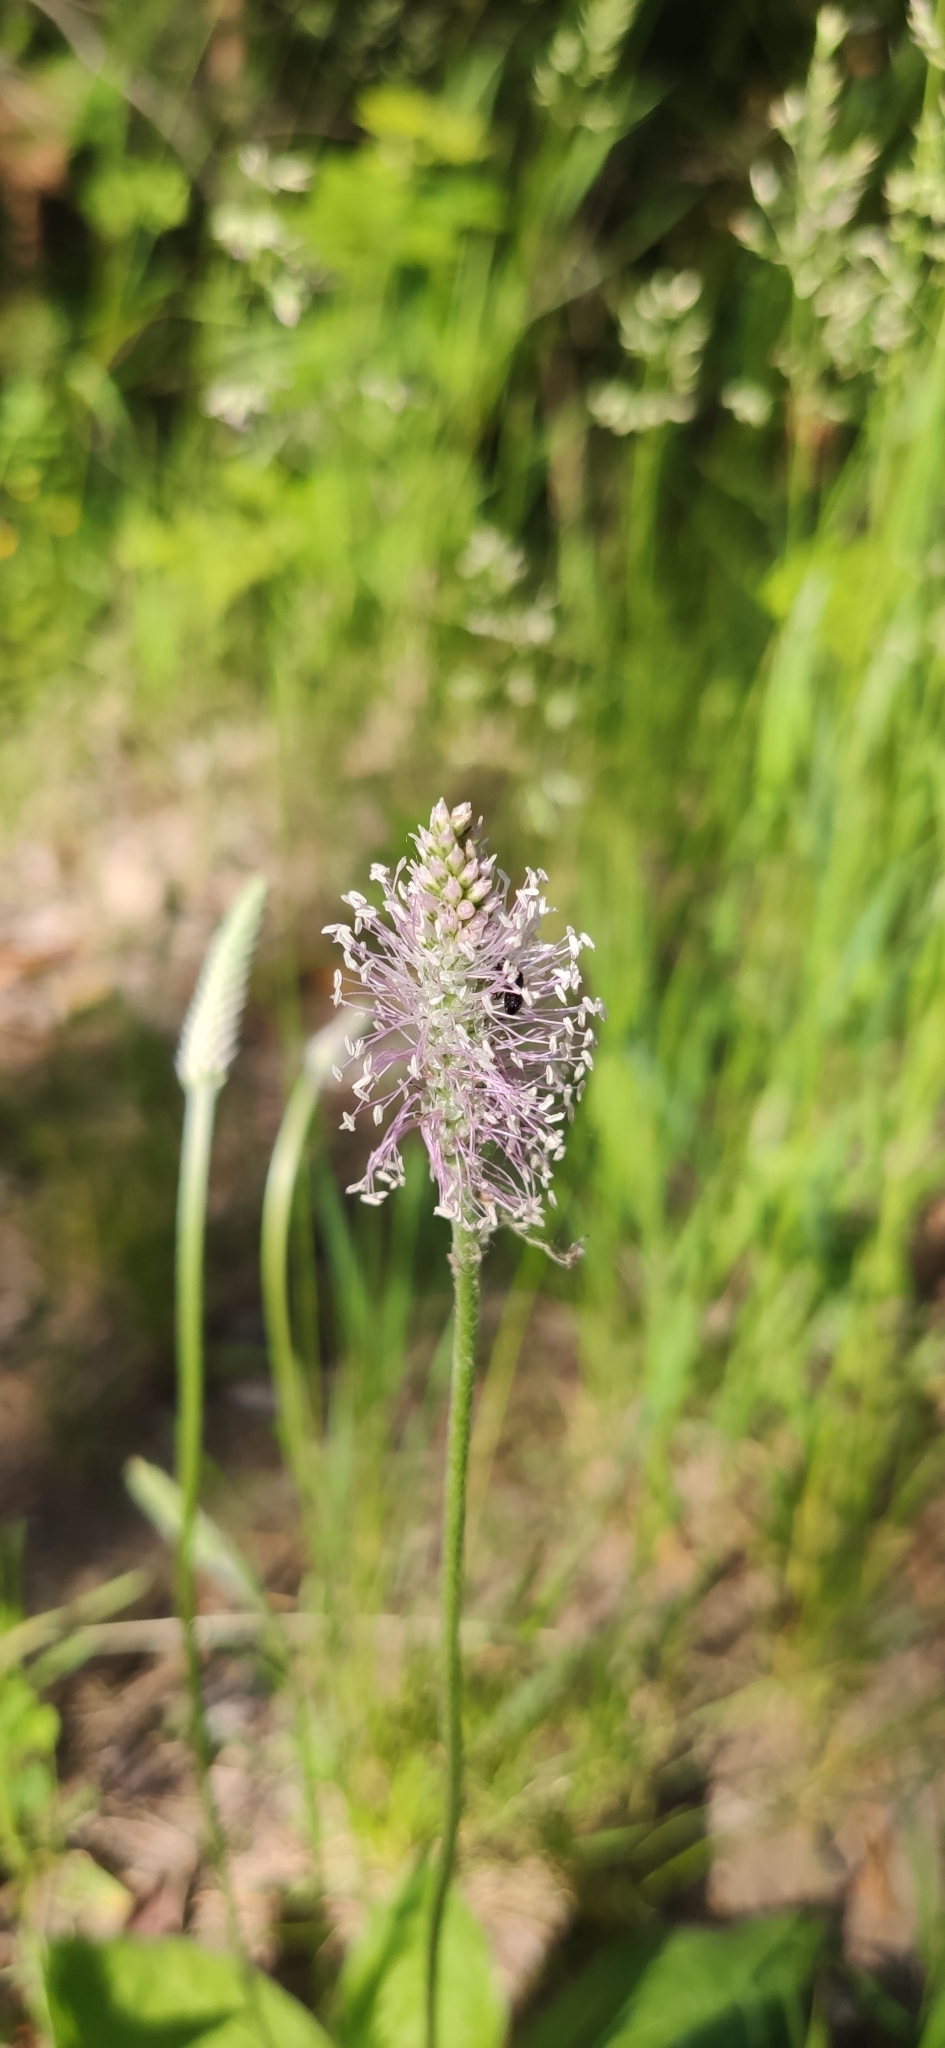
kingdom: Plantae
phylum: Tracheophyta
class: Magnoliopsida
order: Lamiales
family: Plantaginaceae
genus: Plantago
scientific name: Plantago media
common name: Hoary plantain
